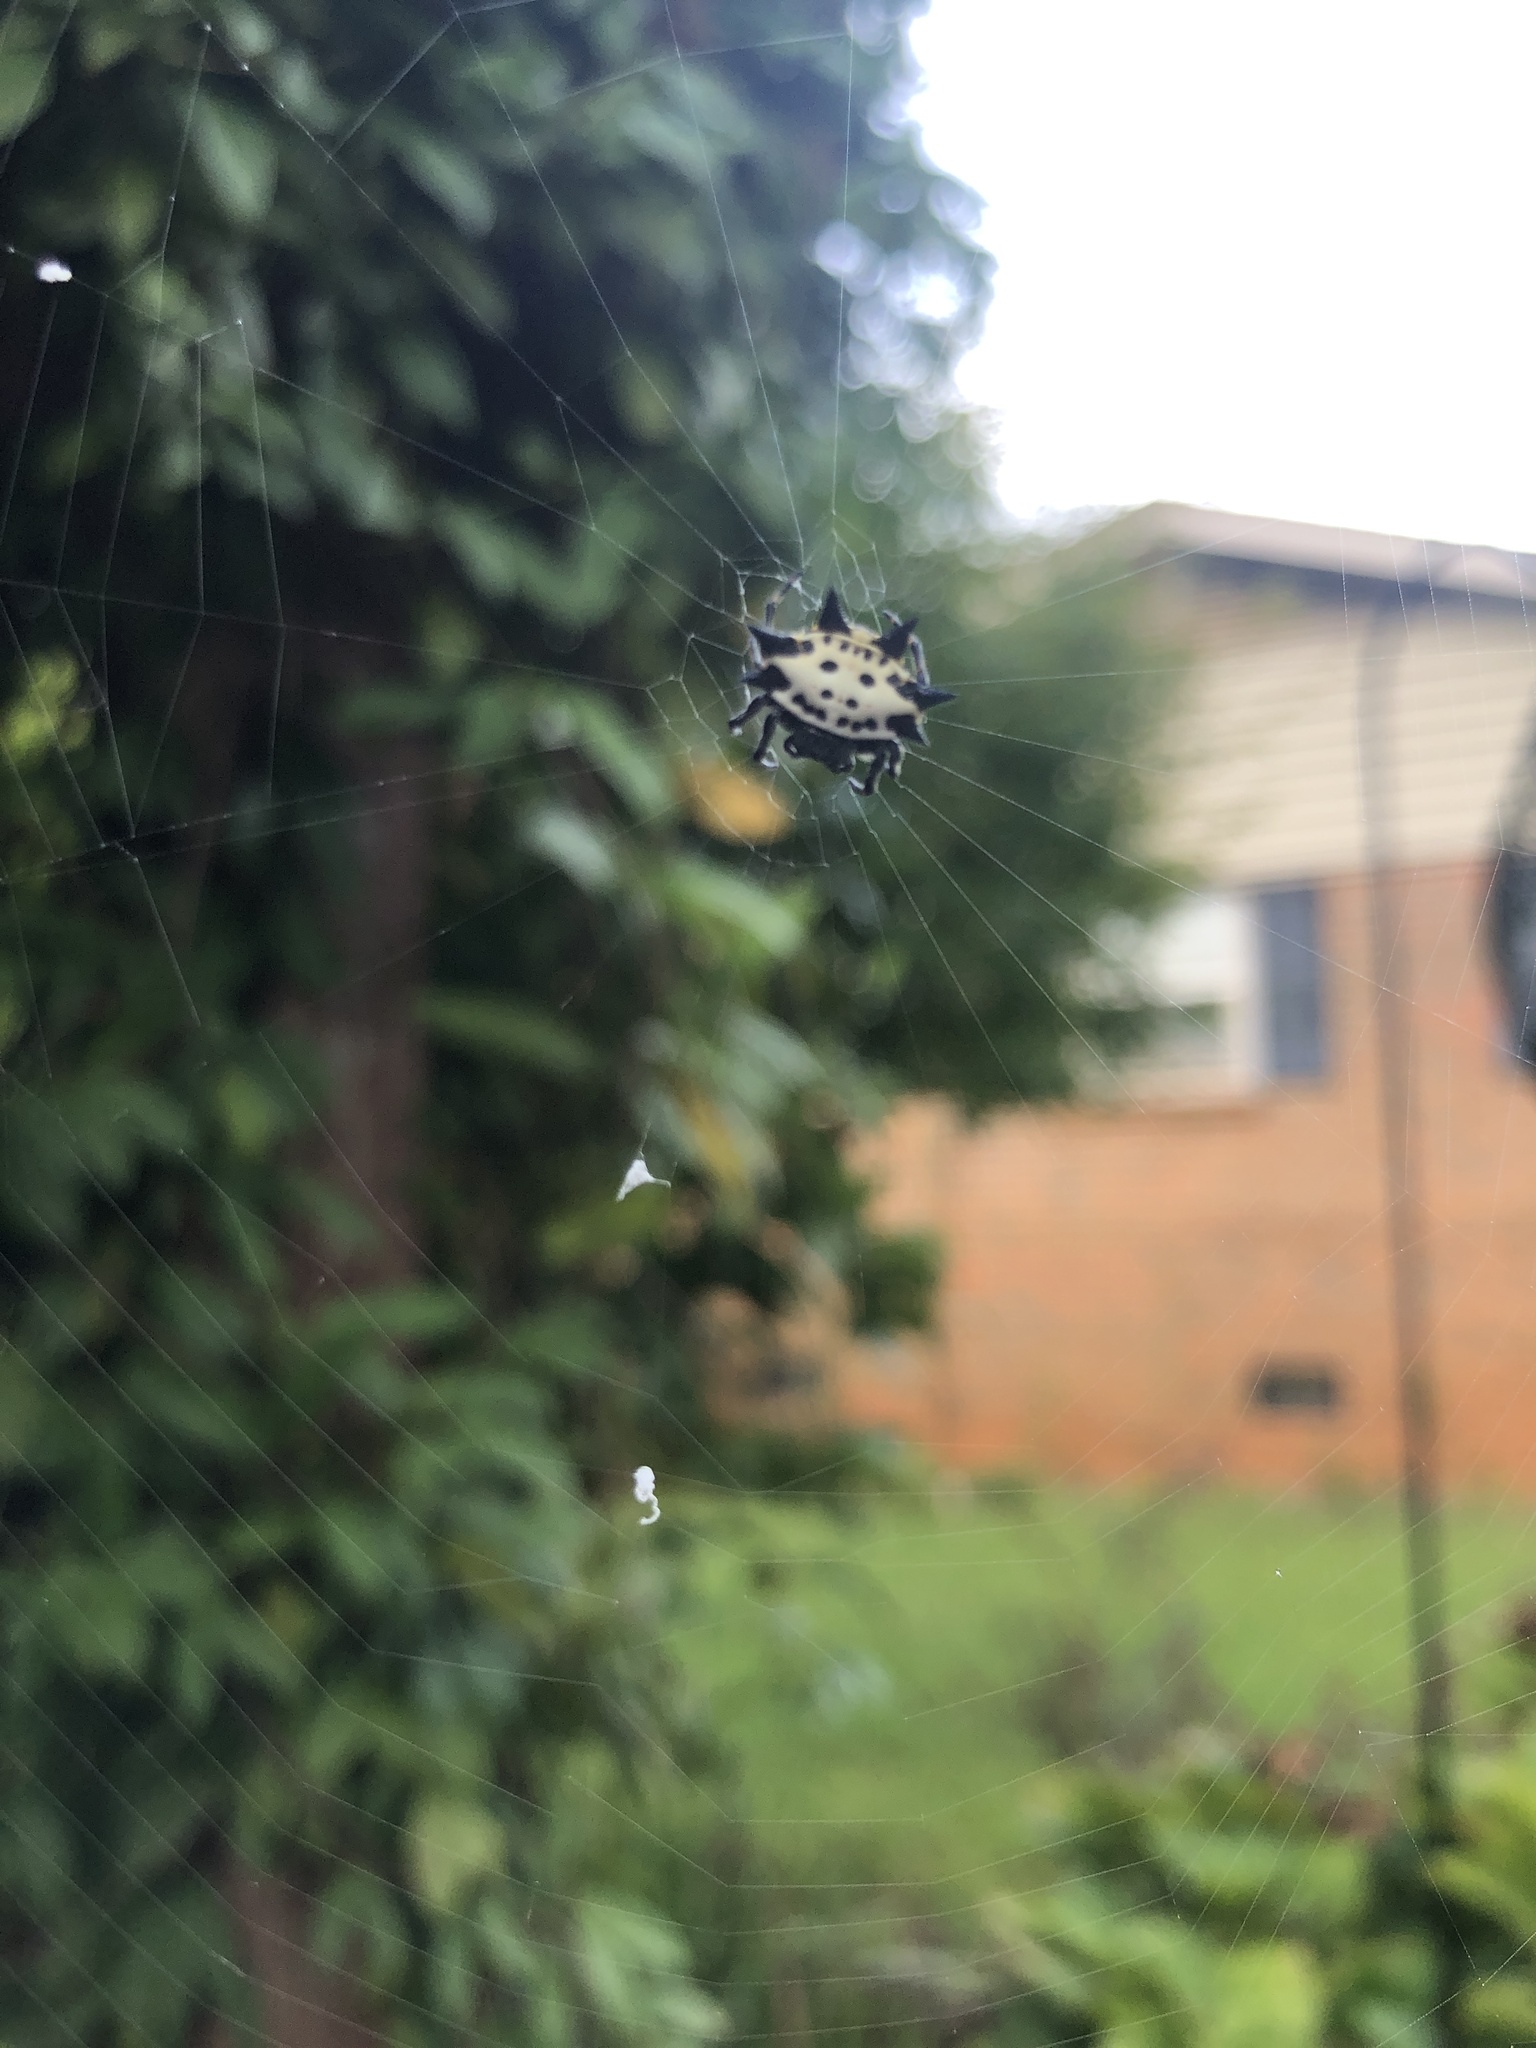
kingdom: Animalia
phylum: Arthropoda
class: Arachnida
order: Araneae
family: Araneidae
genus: Gasteracantha
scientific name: Gasteracantha cancriformis
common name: Orb weavers
